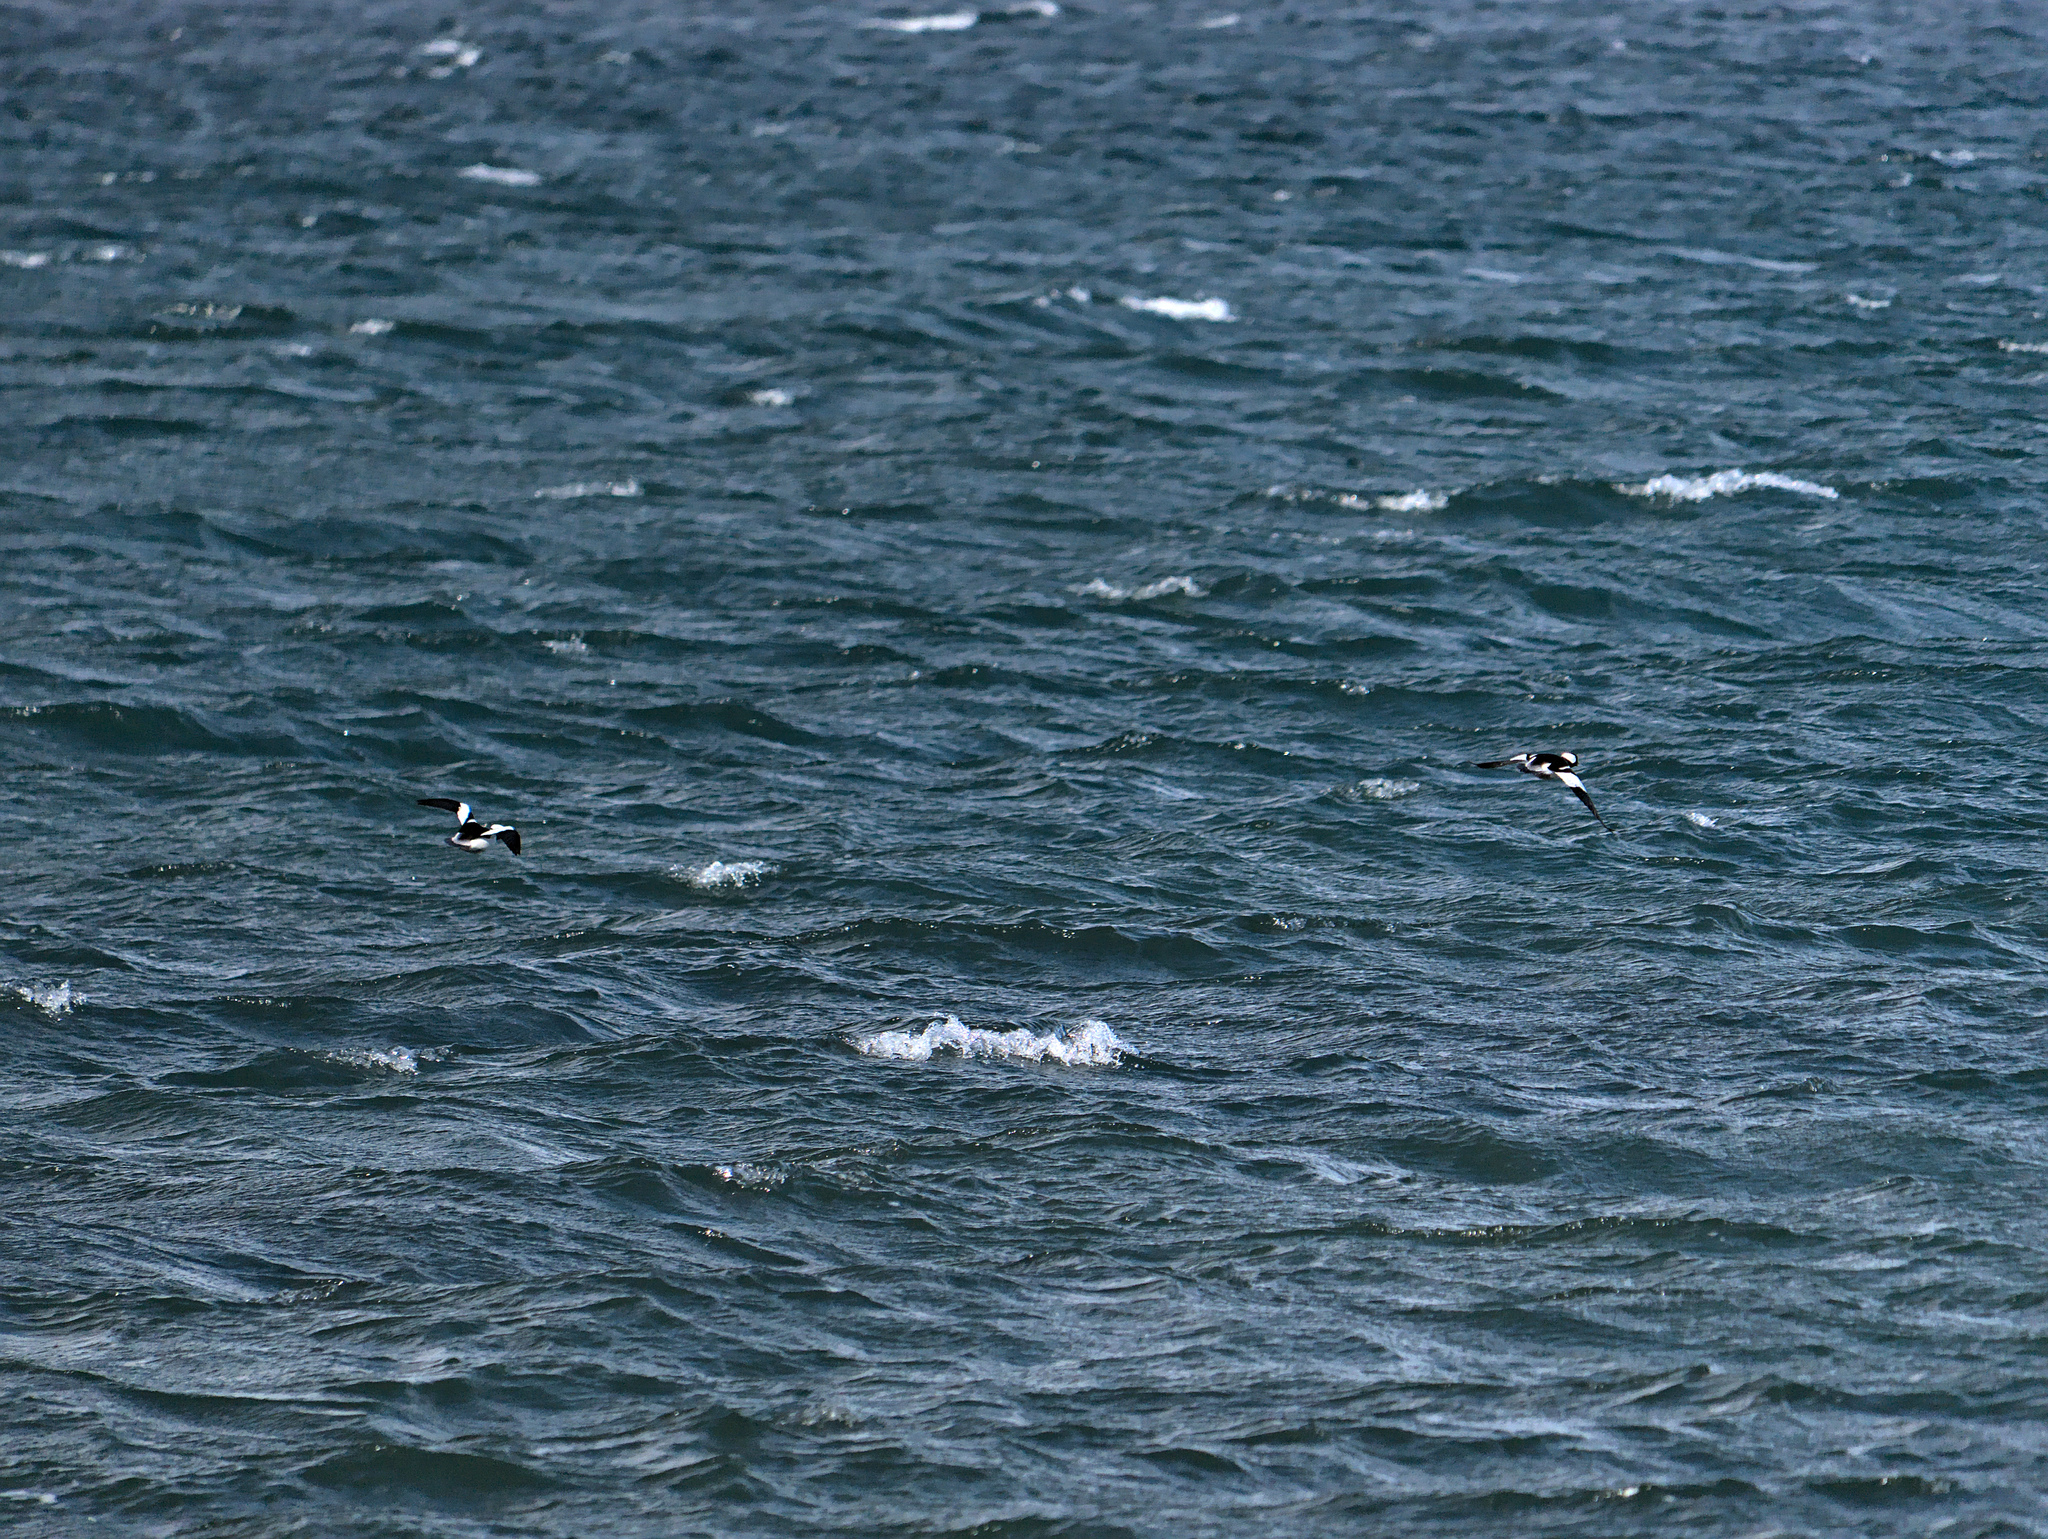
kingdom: Animalia
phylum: Chordata
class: Aves
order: Anseriformes
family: Anatidae
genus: Bucephala
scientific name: Bucephala albeola
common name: Bufflehead
